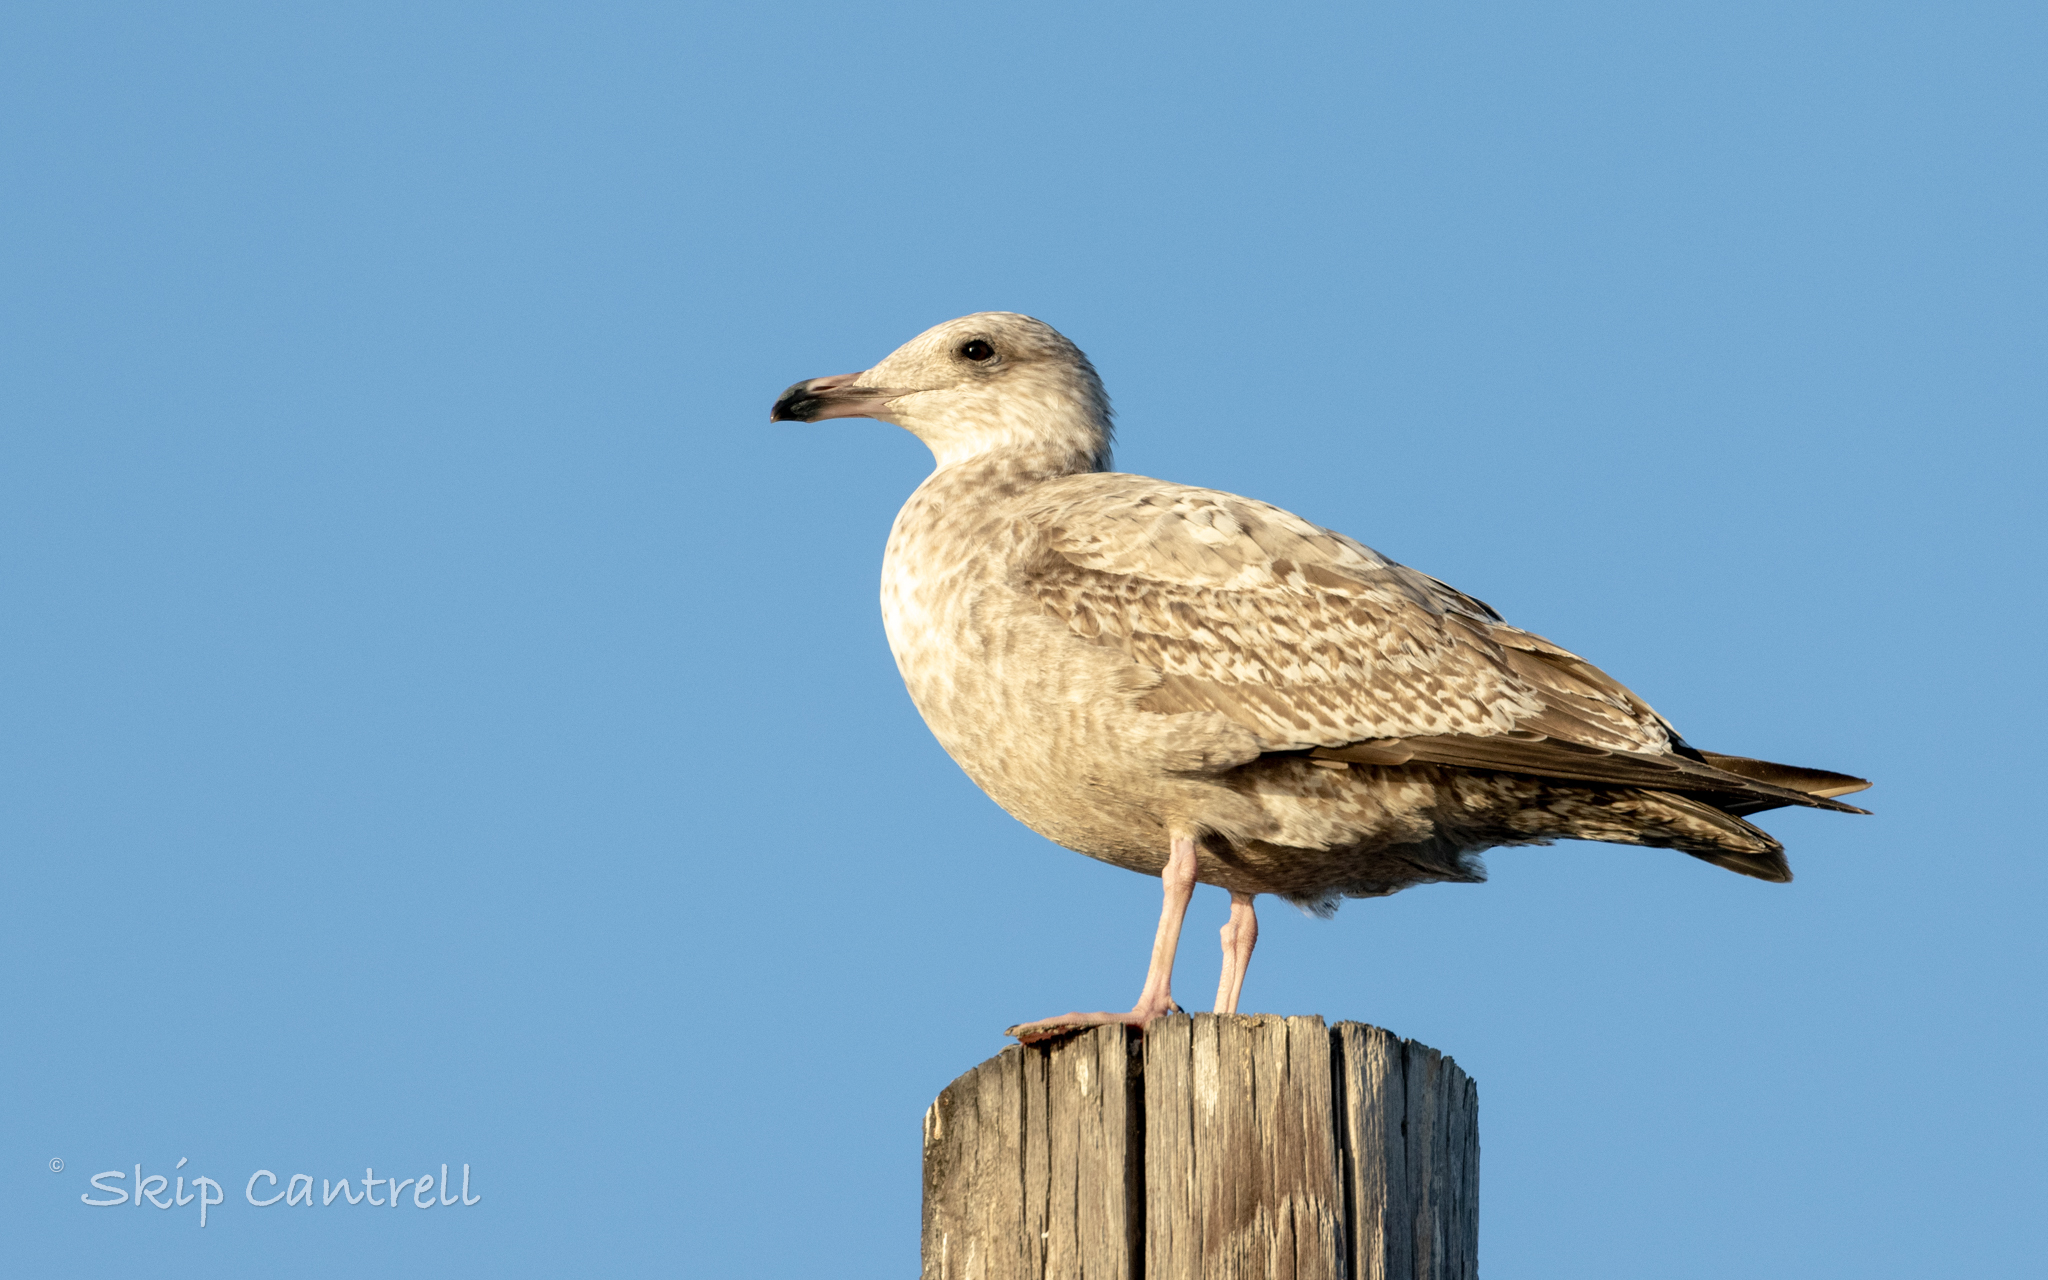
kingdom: Animalia
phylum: Chordata
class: Aves
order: Charadriiformes
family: Laridae
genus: Larus
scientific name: Larus argentatus
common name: Herring gull
